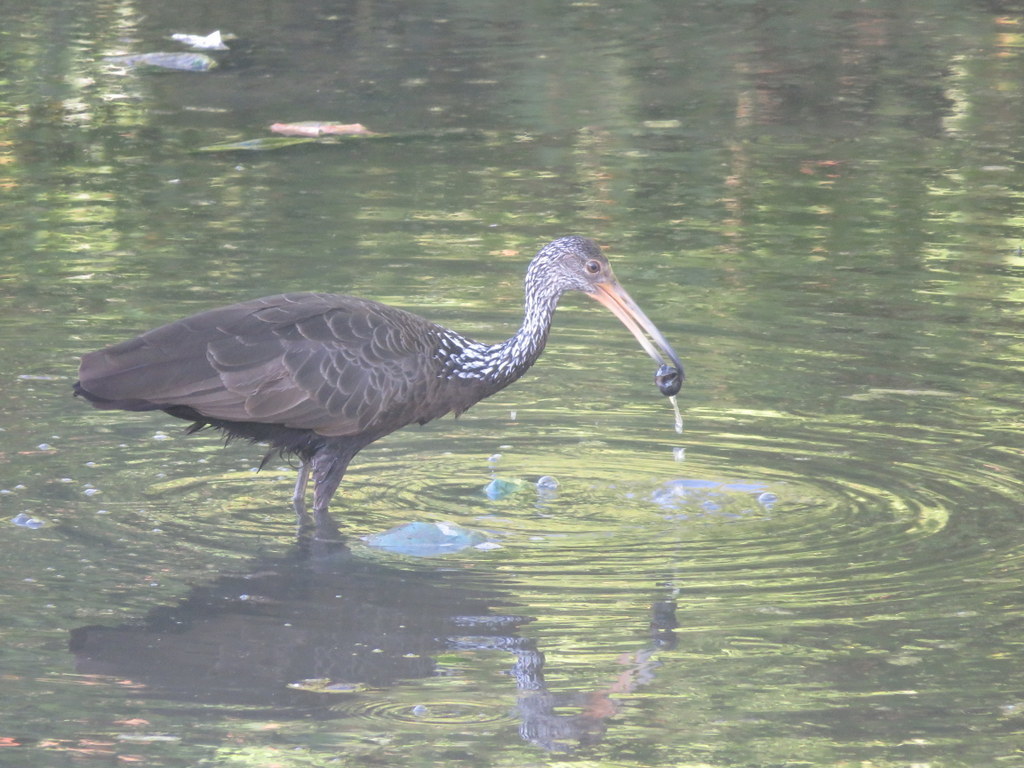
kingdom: Animalia
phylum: Chordata
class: Aves
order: Gruiformes
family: Aramidae
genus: Aramus
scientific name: Aramus guarauna
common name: Limpkin
